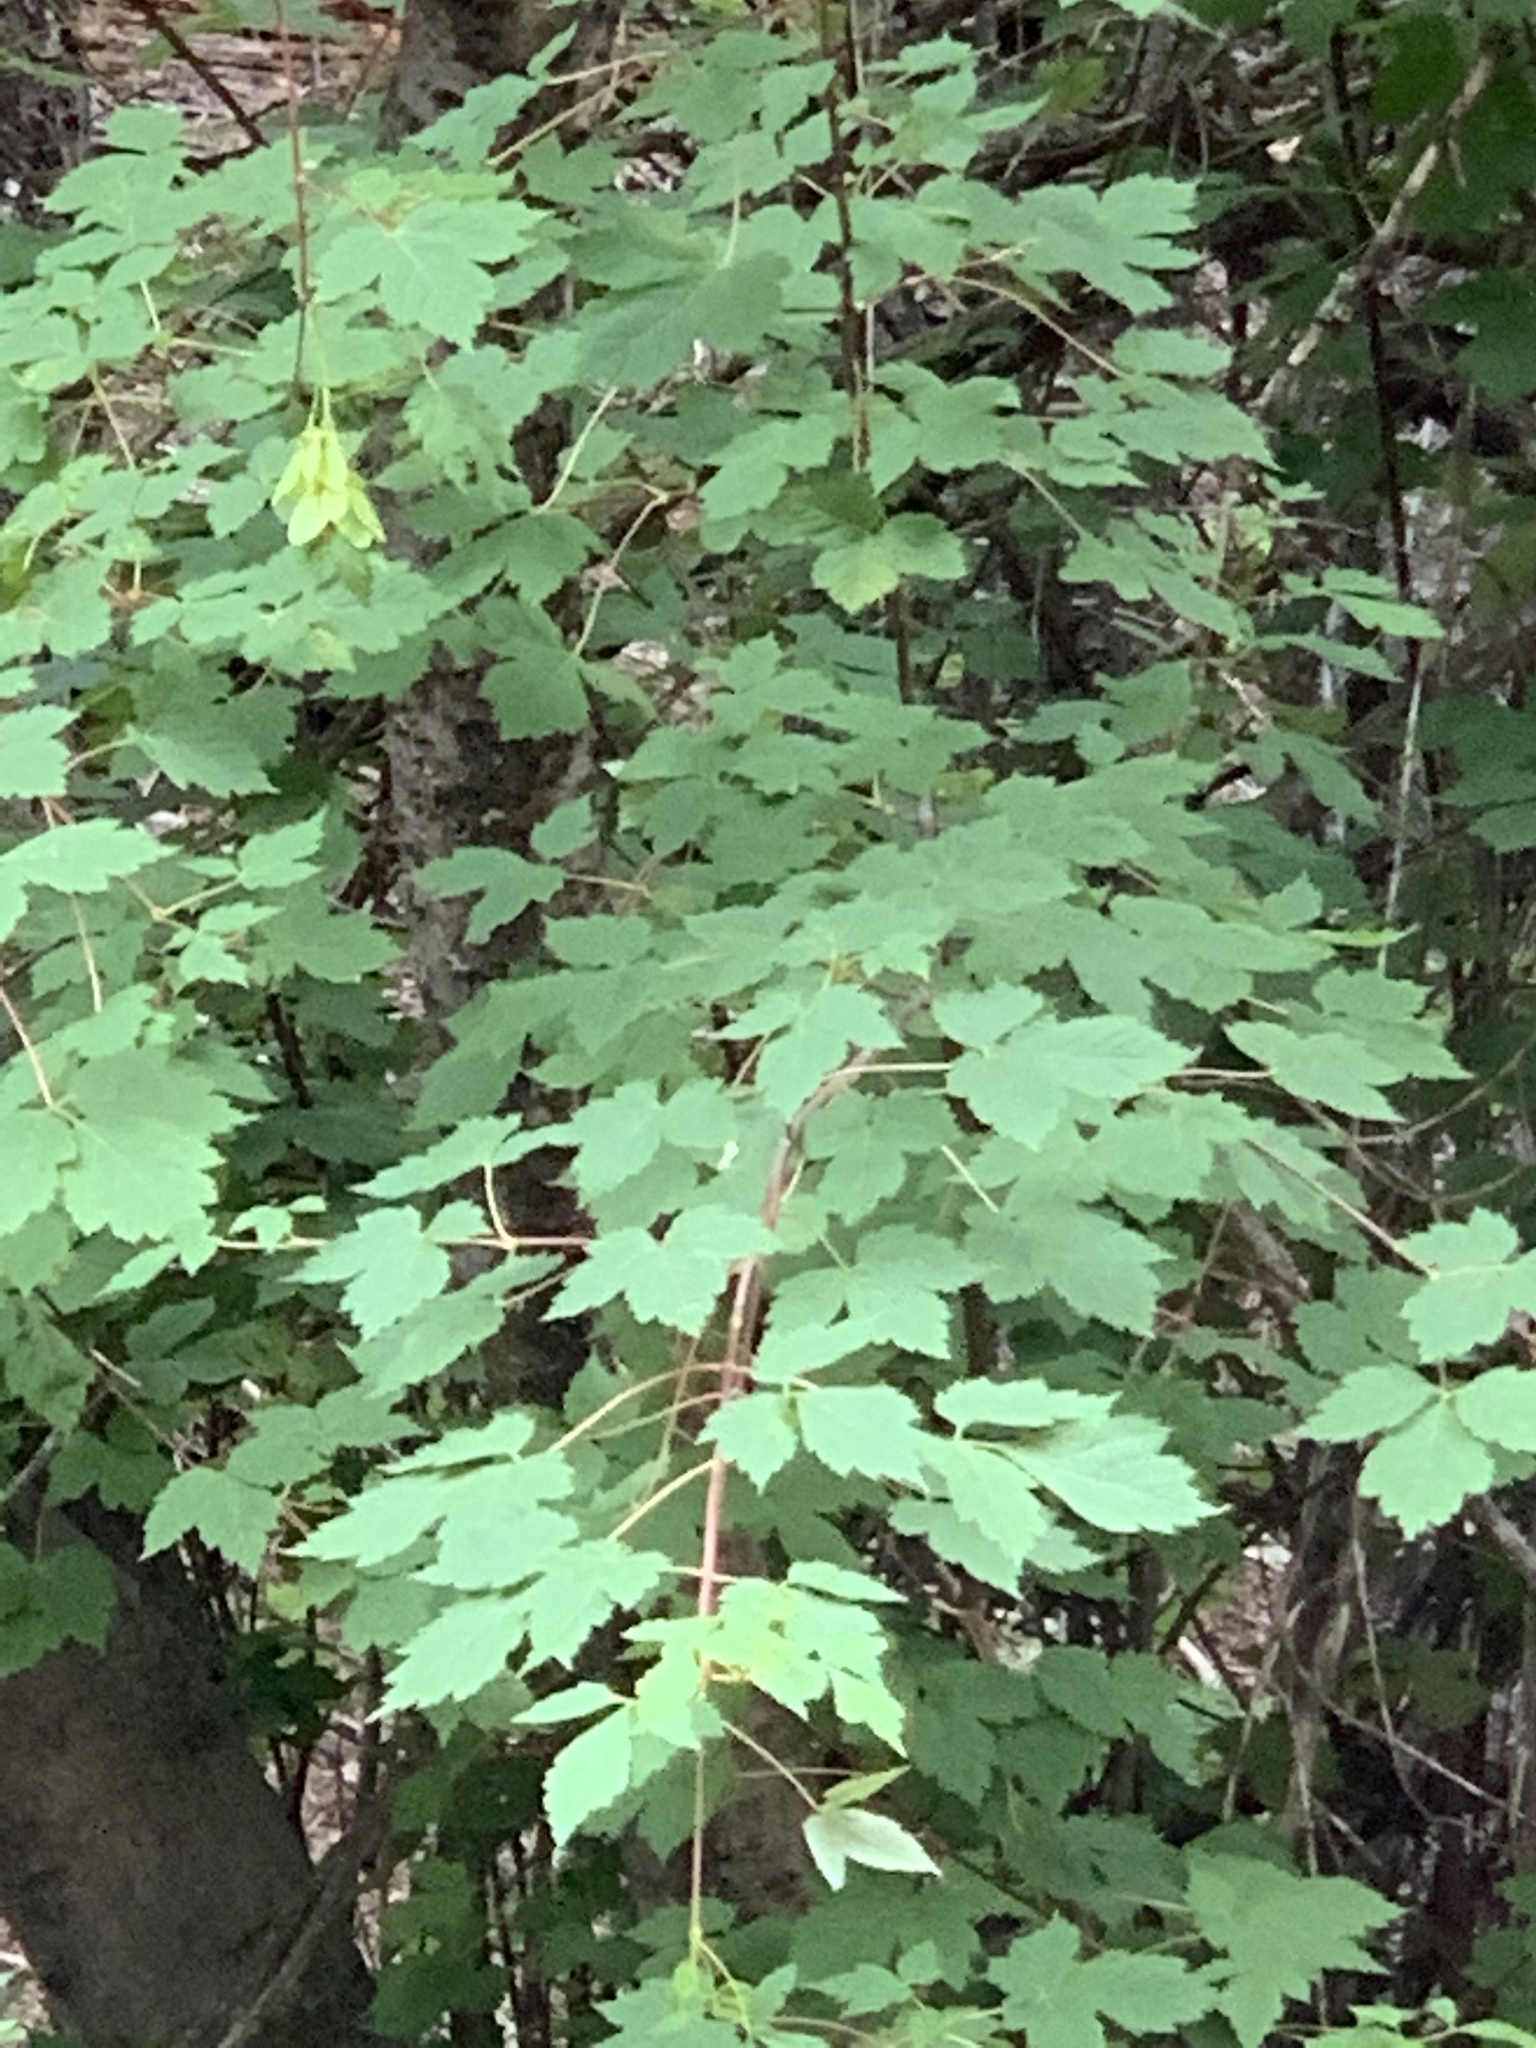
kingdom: Plantae
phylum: Tracheophyta
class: Magnoliopsida
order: Sapindales
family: Sapindaceae
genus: Acer
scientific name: Acer negundo
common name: Ashleaf maple
